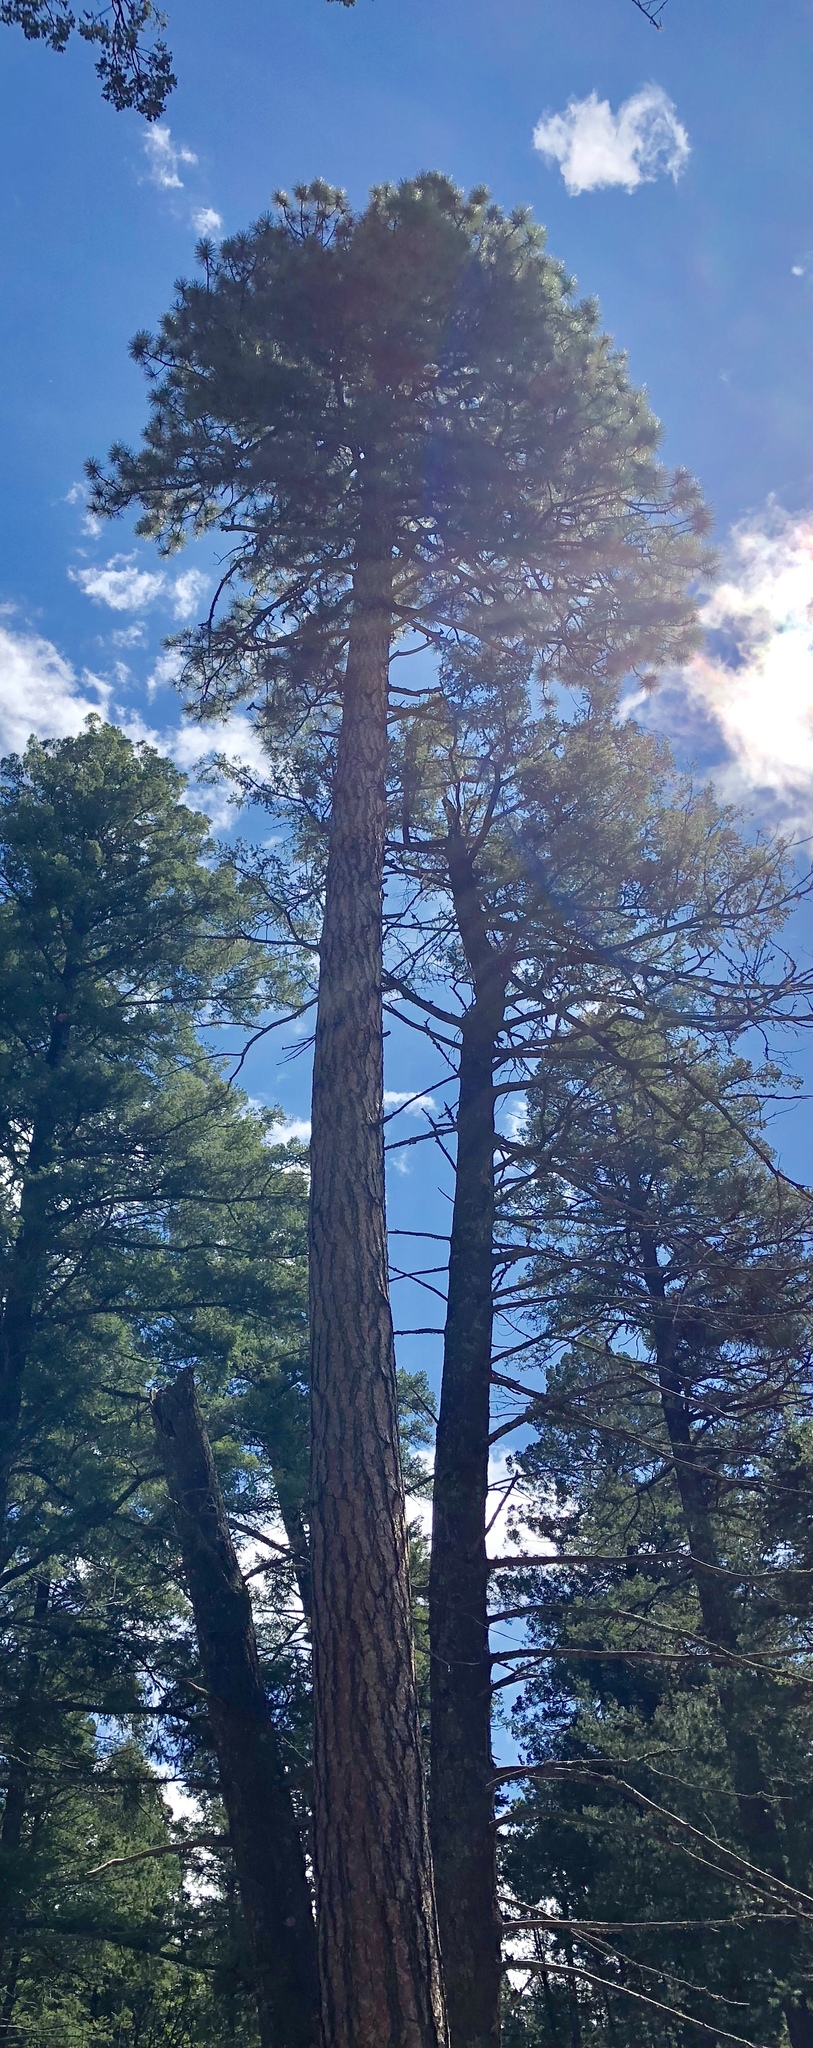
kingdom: Plantae
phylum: Tracheophyta
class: Pinopsida
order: Pinales
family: Pinaceae
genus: Pinus
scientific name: Pinus ponderosa
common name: Western yellow-pine
